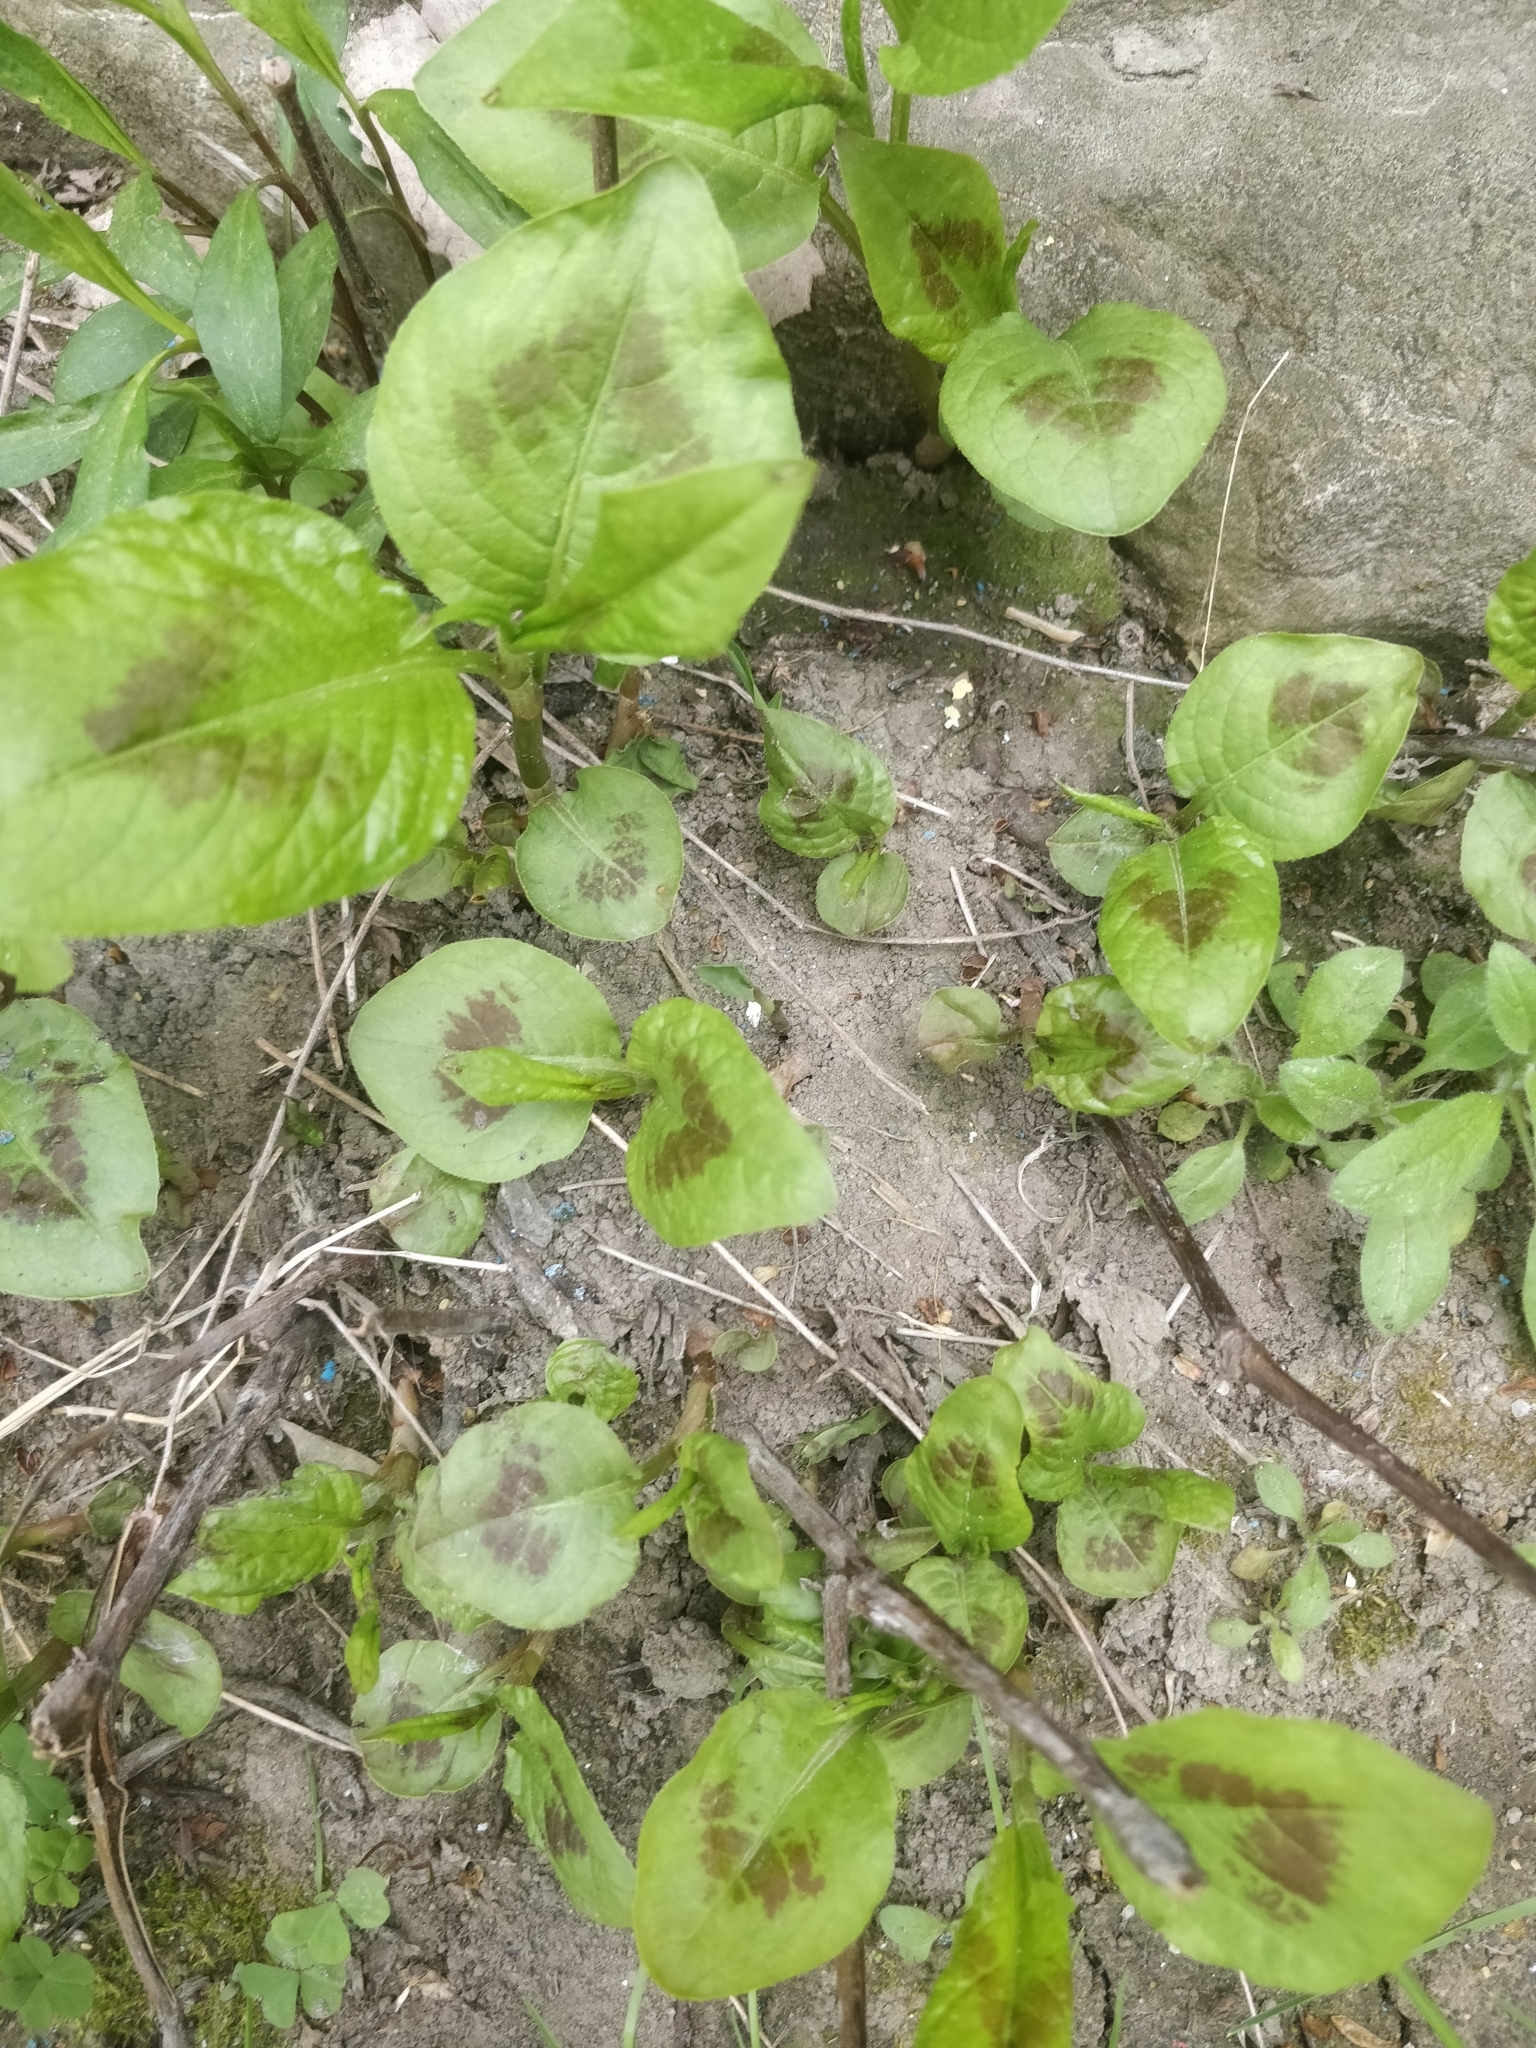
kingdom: Plantae
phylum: Tracheophyta
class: Magnoliopsida
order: Caryophyllales
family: Polygonaceae
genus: Persicaria
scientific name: Persicaria virginiana
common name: Jumpseed
